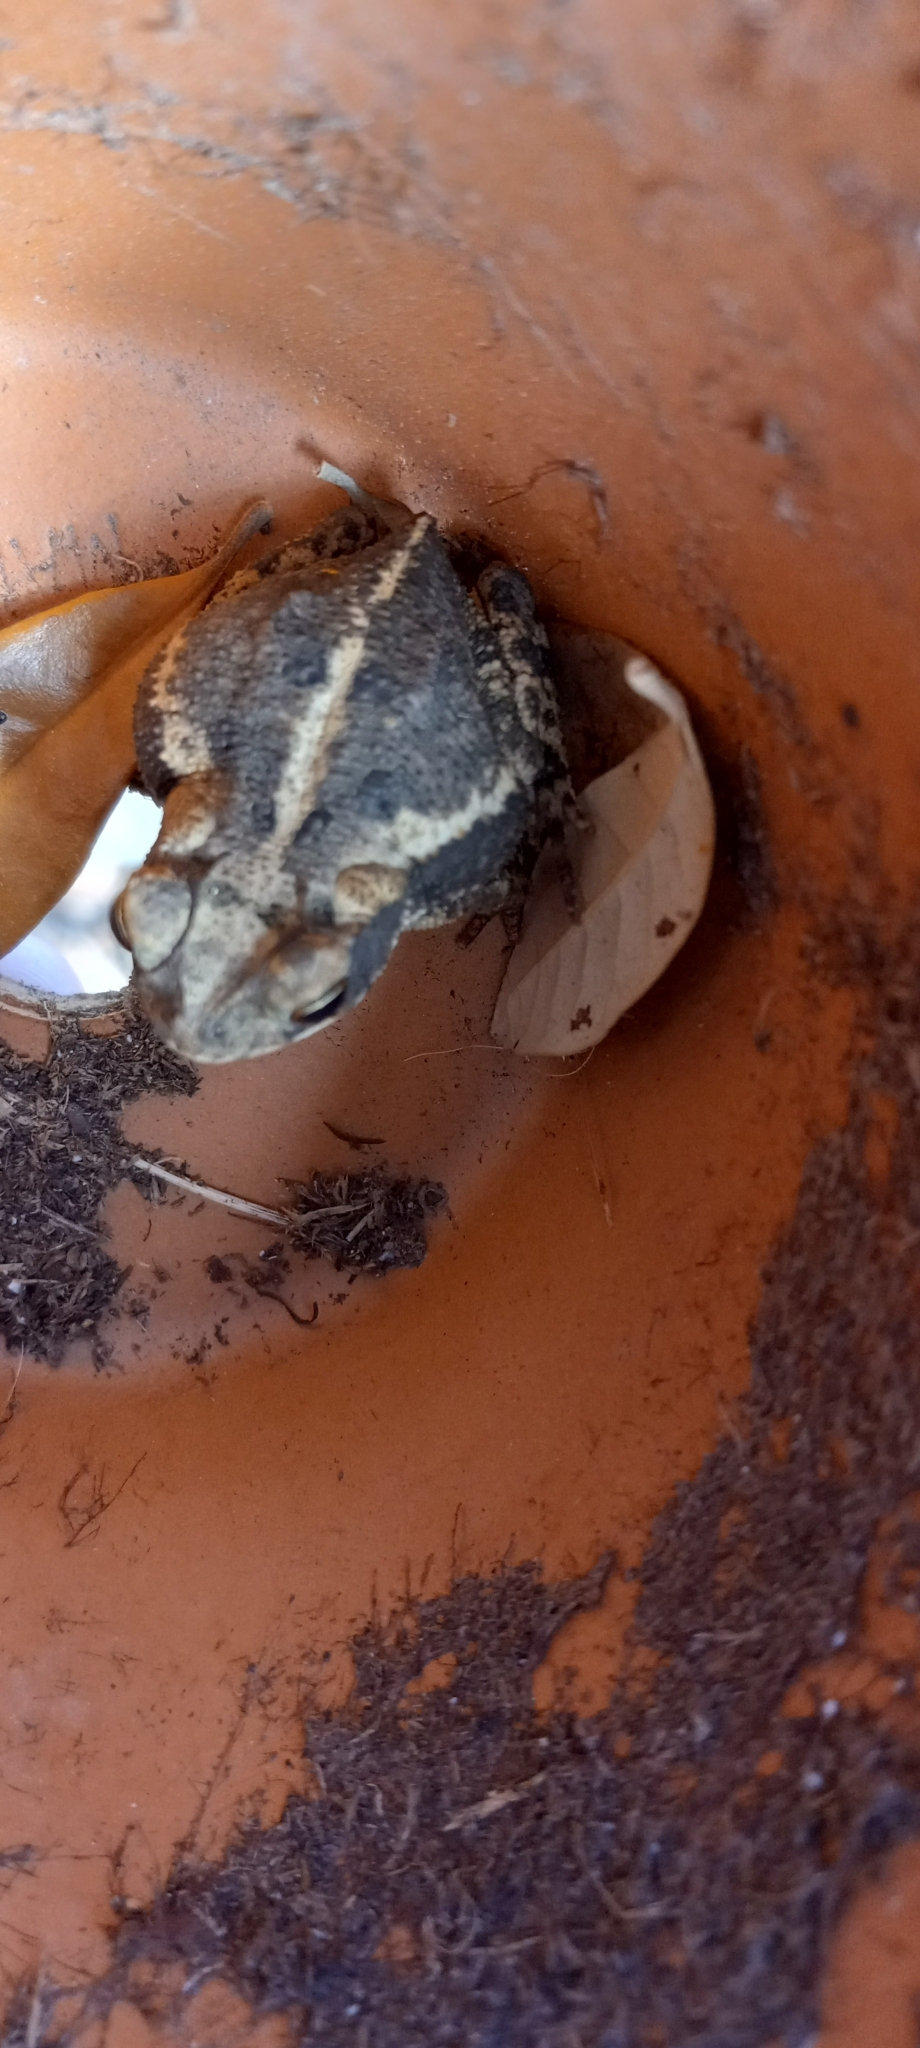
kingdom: Animalia
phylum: Chordata
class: Amphibia
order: Anura
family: Bufonidae
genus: Incilius
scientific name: Incilius nebulifer
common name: Gulf coast toad
